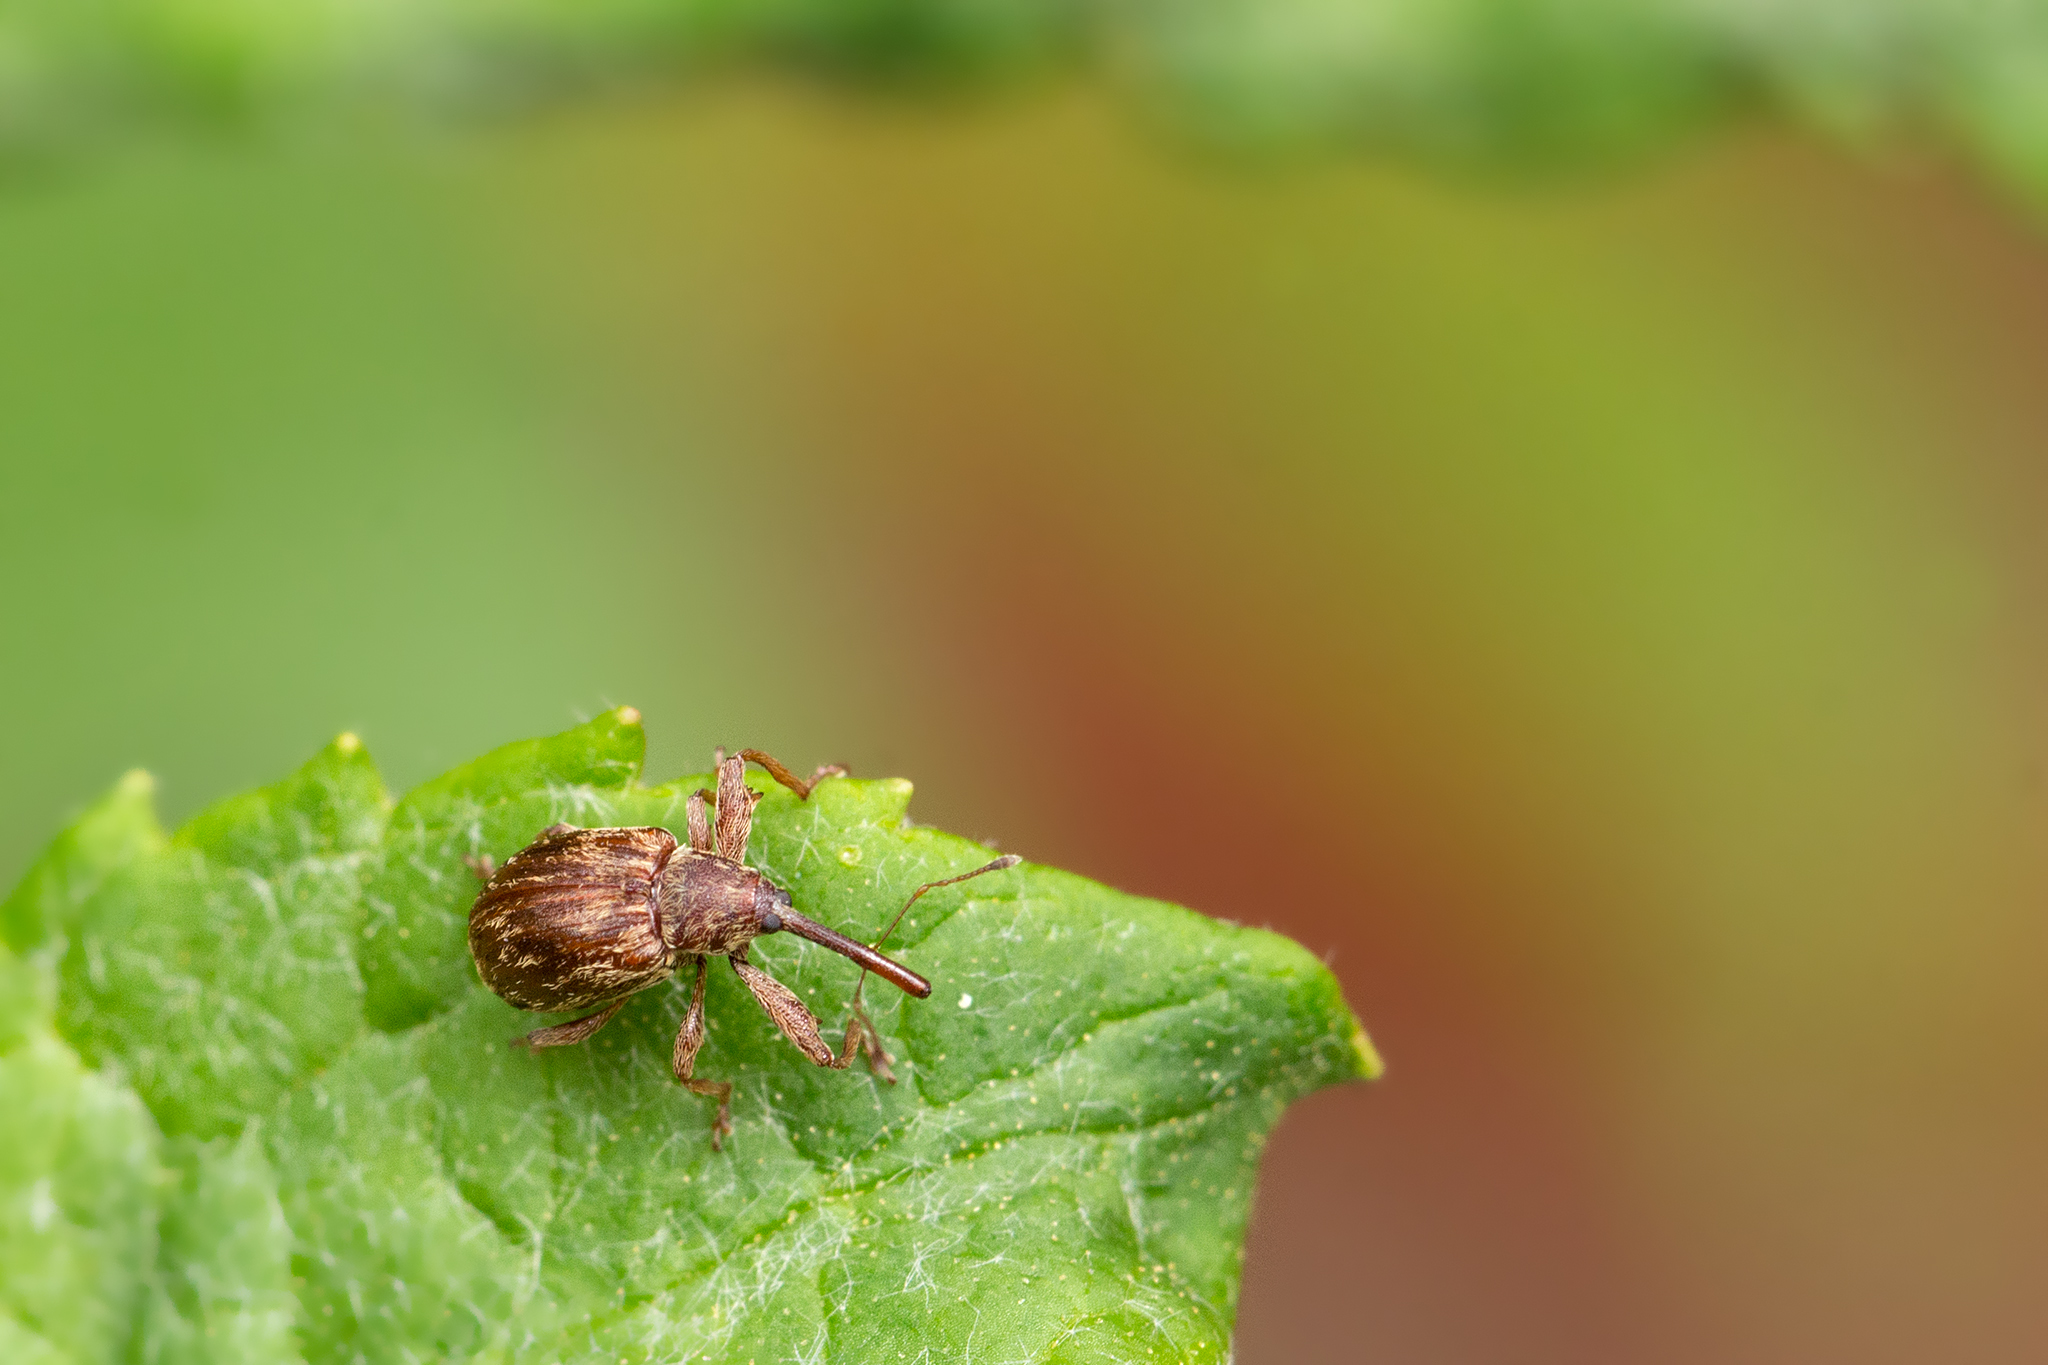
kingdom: Animalia
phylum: Arthropoda
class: Insecta
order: Coleoptera
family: Curculionidae
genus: Anthonomus
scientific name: Anthonomus rectirostris
